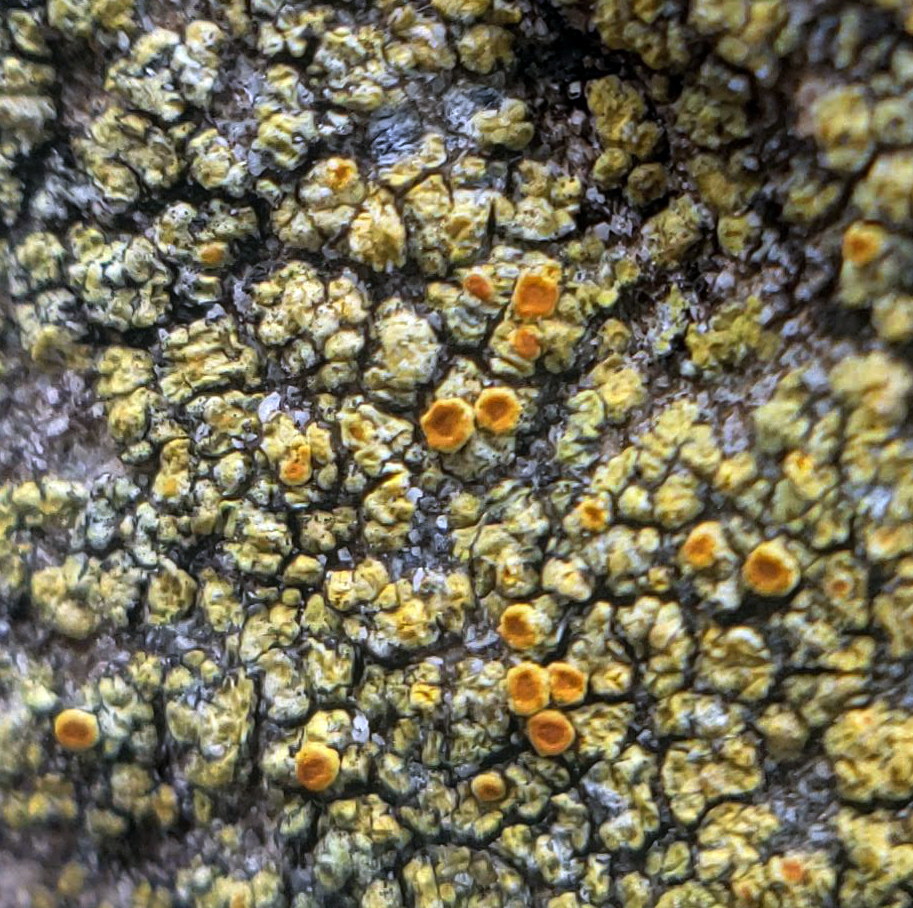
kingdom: Fungi
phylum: Ascomycota
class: Lecanoromycetes
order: Teloschistales
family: Teloschistaceae
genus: Gyalolechia
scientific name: Gyalolechia flavovirescens
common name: Sulphur firedot
